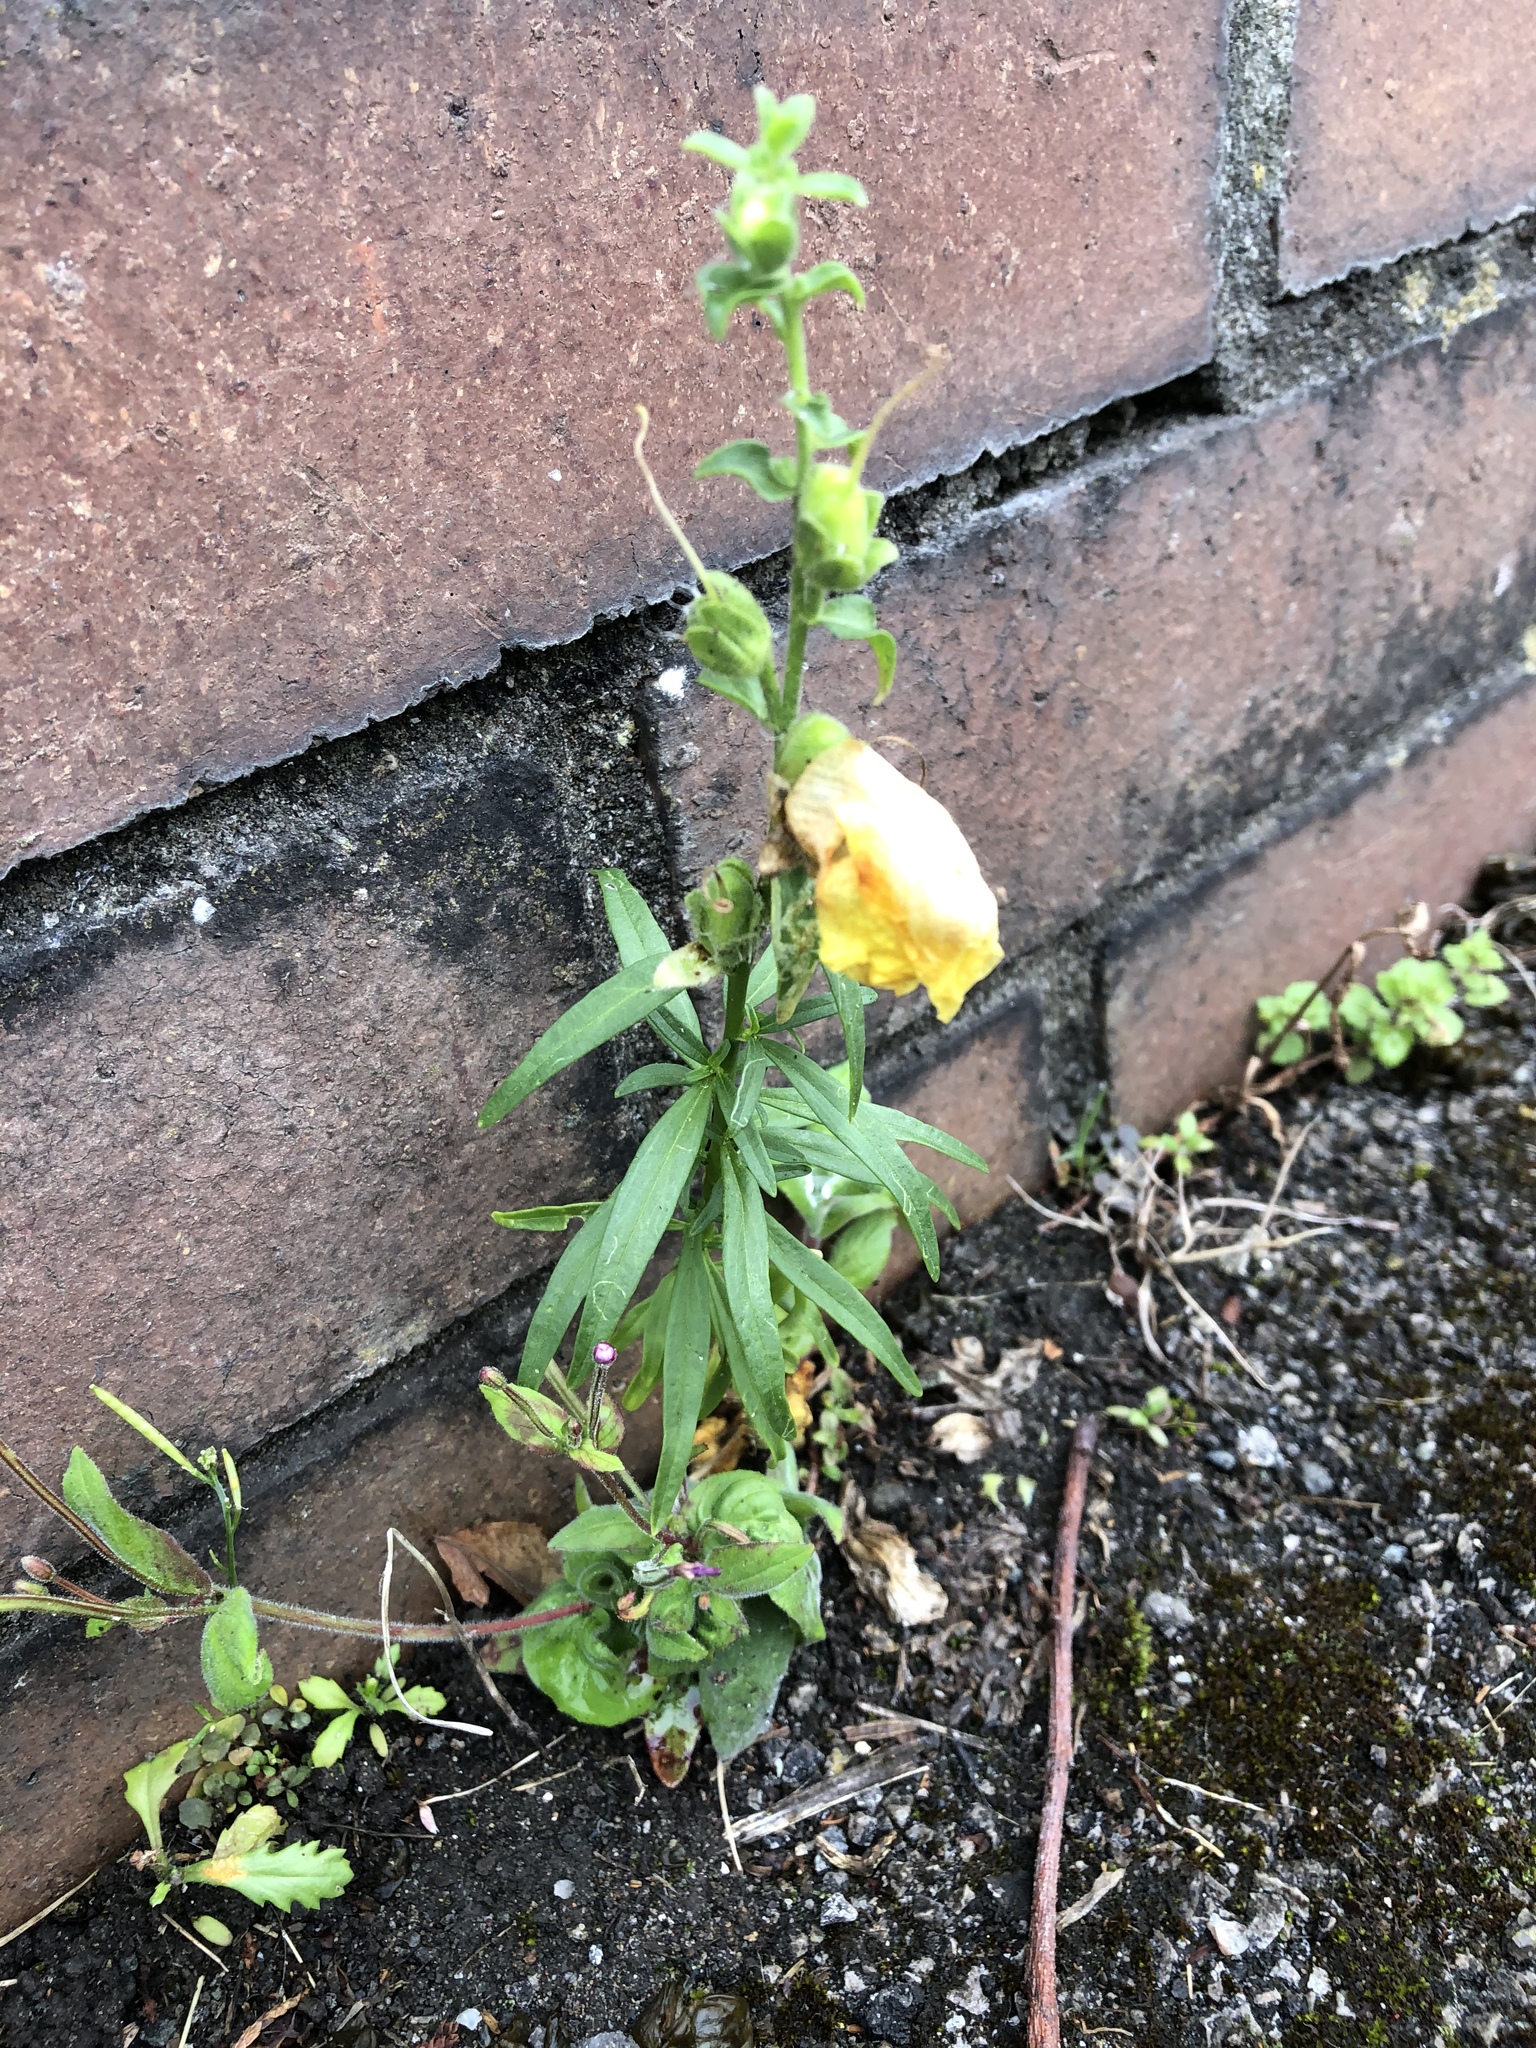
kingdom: Plantae
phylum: Tracheophyta
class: Magnoliopsida
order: Lamiales
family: Plantaginaceae
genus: Antirrhinum
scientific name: Antirrhinum majus
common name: Snapdragon
